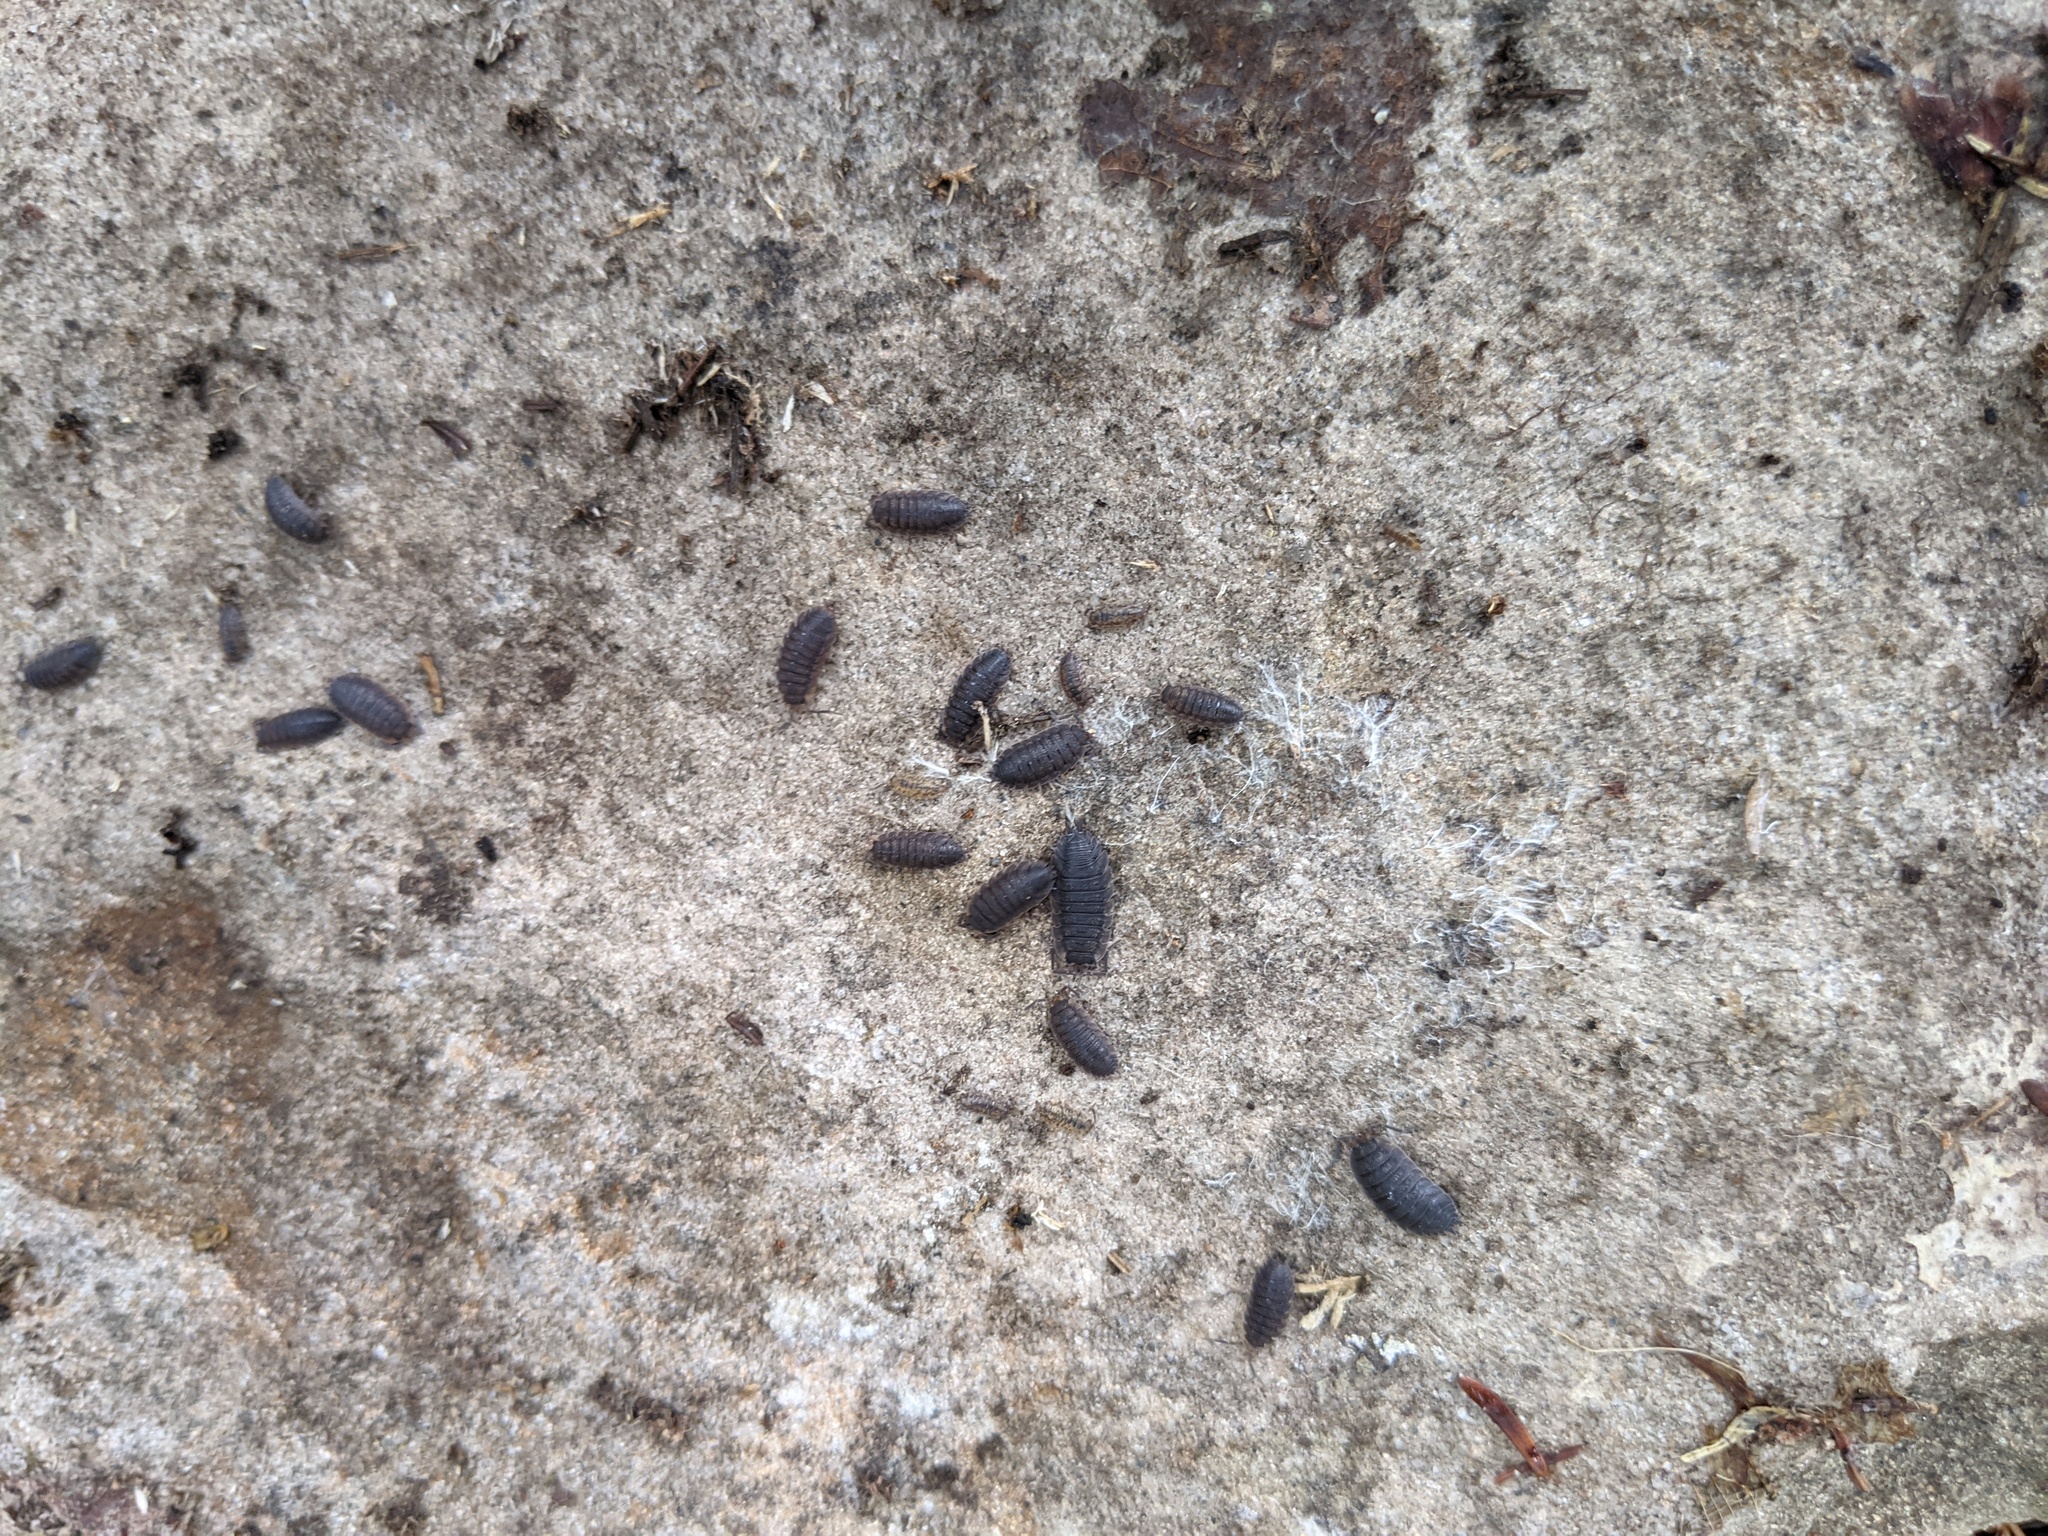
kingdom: Animalia
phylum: Arthropoda
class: Malacostraca
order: Isopoda
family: Porcellionidae
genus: Porcellio
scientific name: Porcellio scaber
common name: Common rough woodlouse
